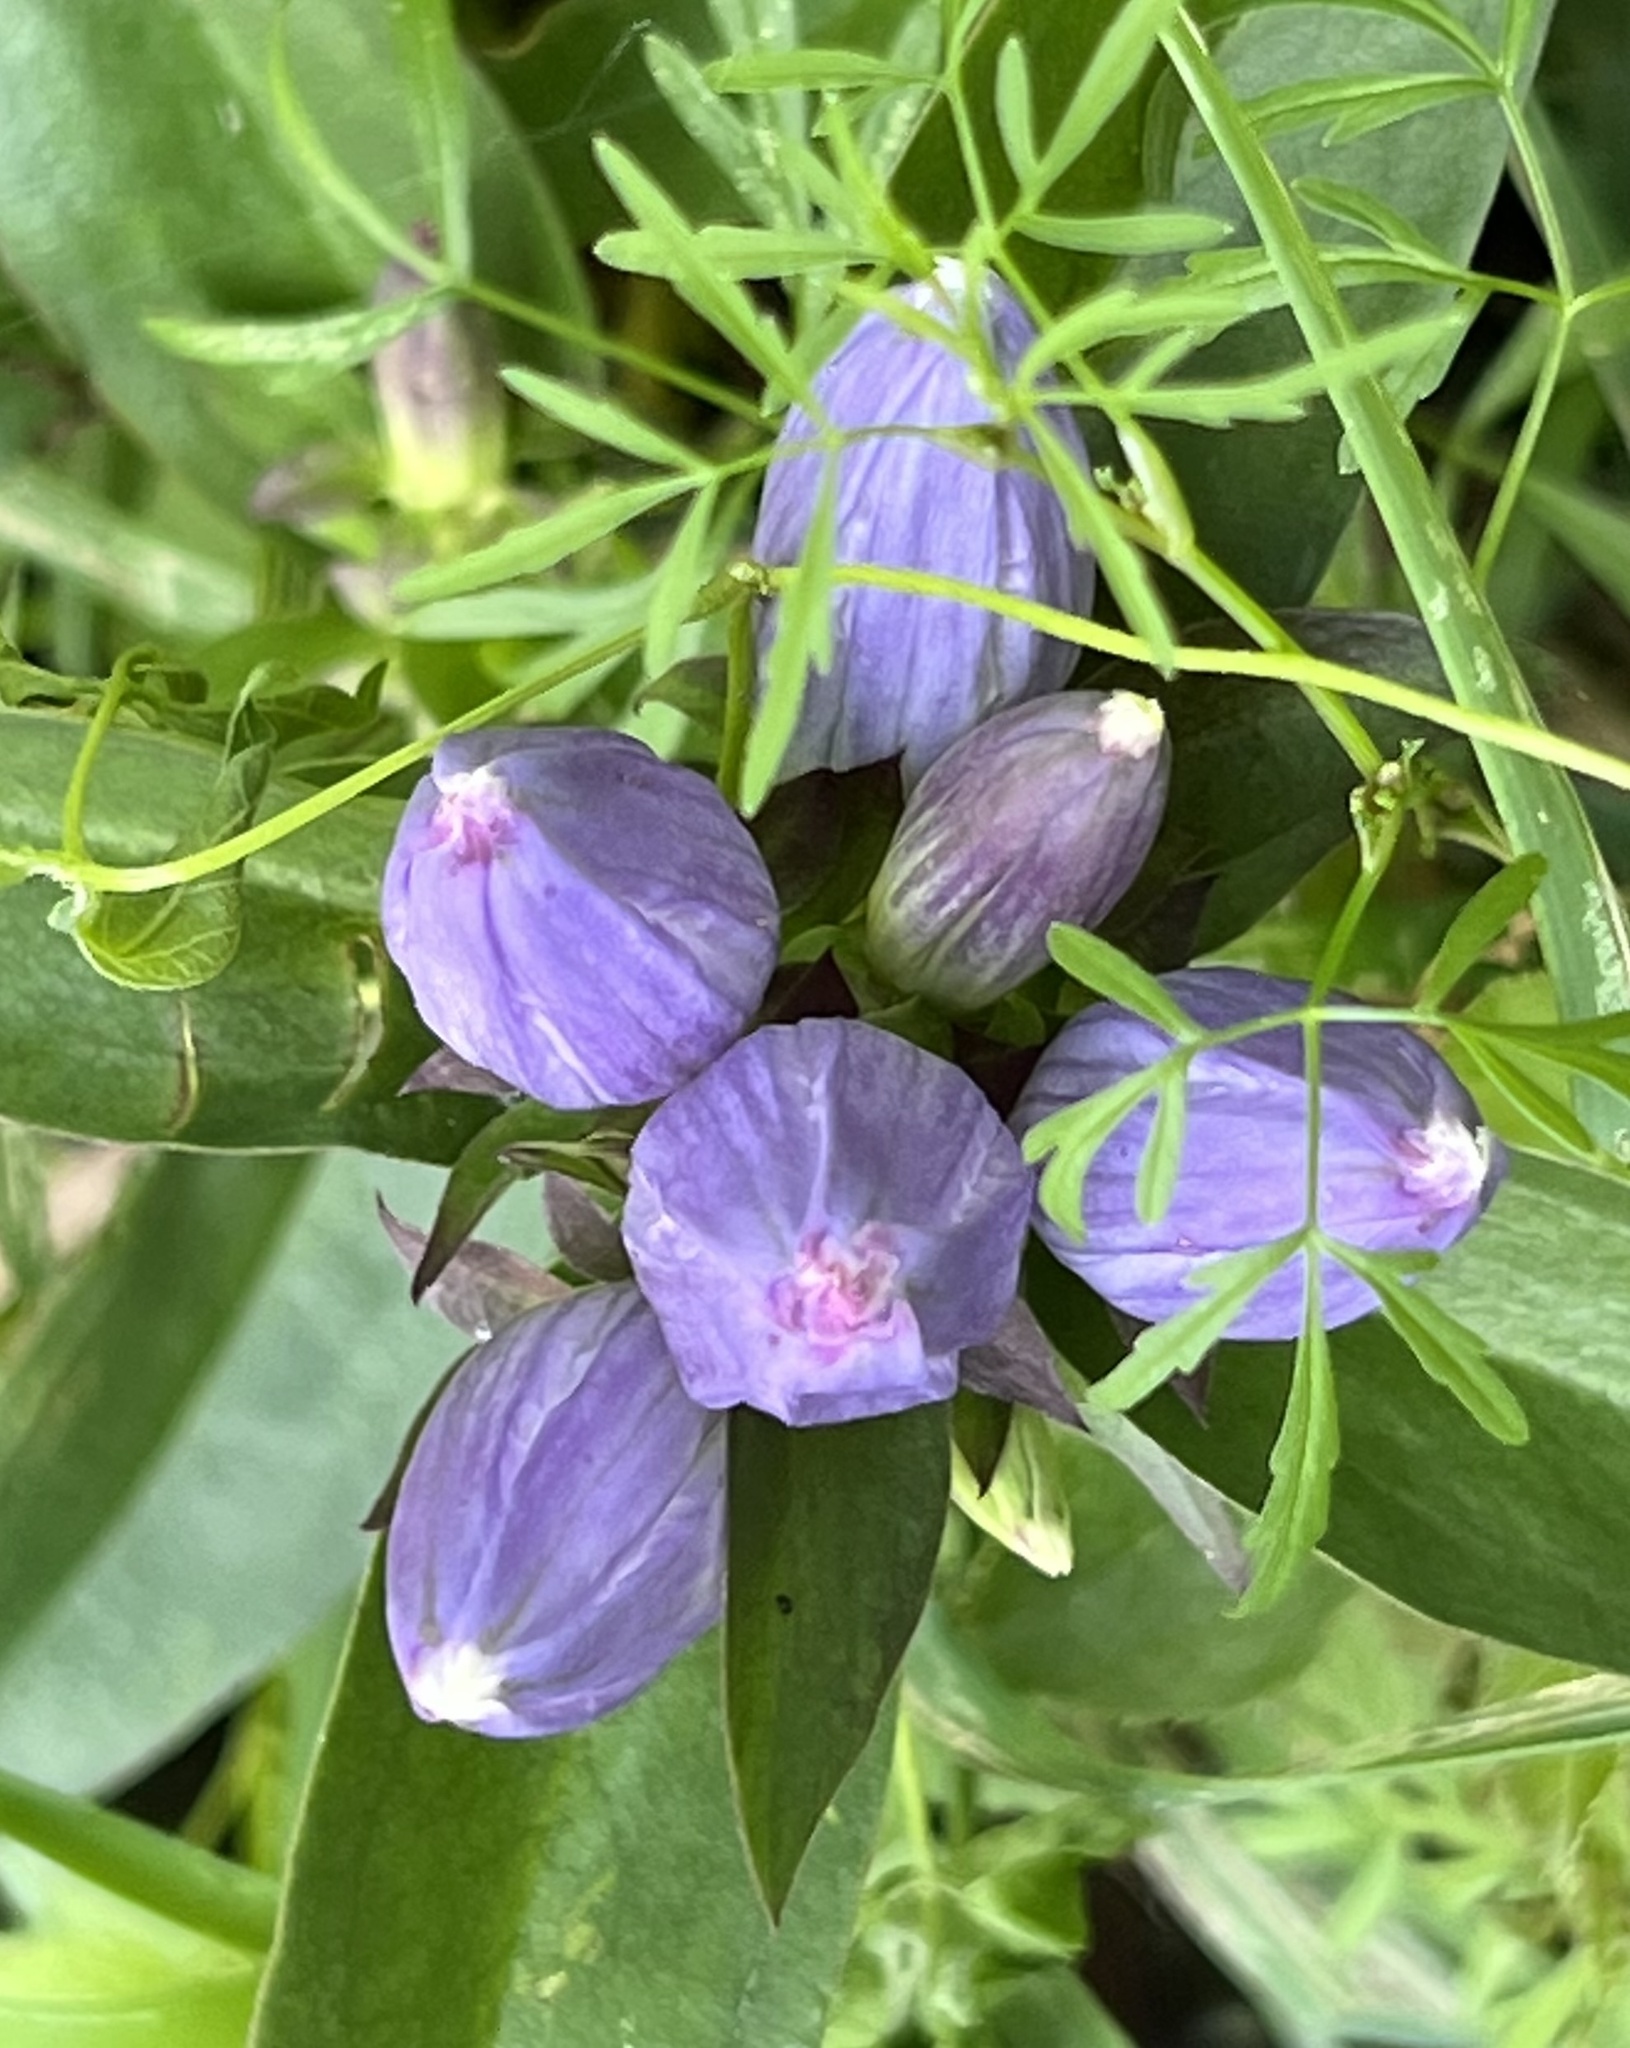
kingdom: Plantae
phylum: Tracheophyta
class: Magnoliopsida
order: Gentianales
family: Gentianaceae
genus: Gentiana
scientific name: Gentiana andrewsii
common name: Bottle gentian
